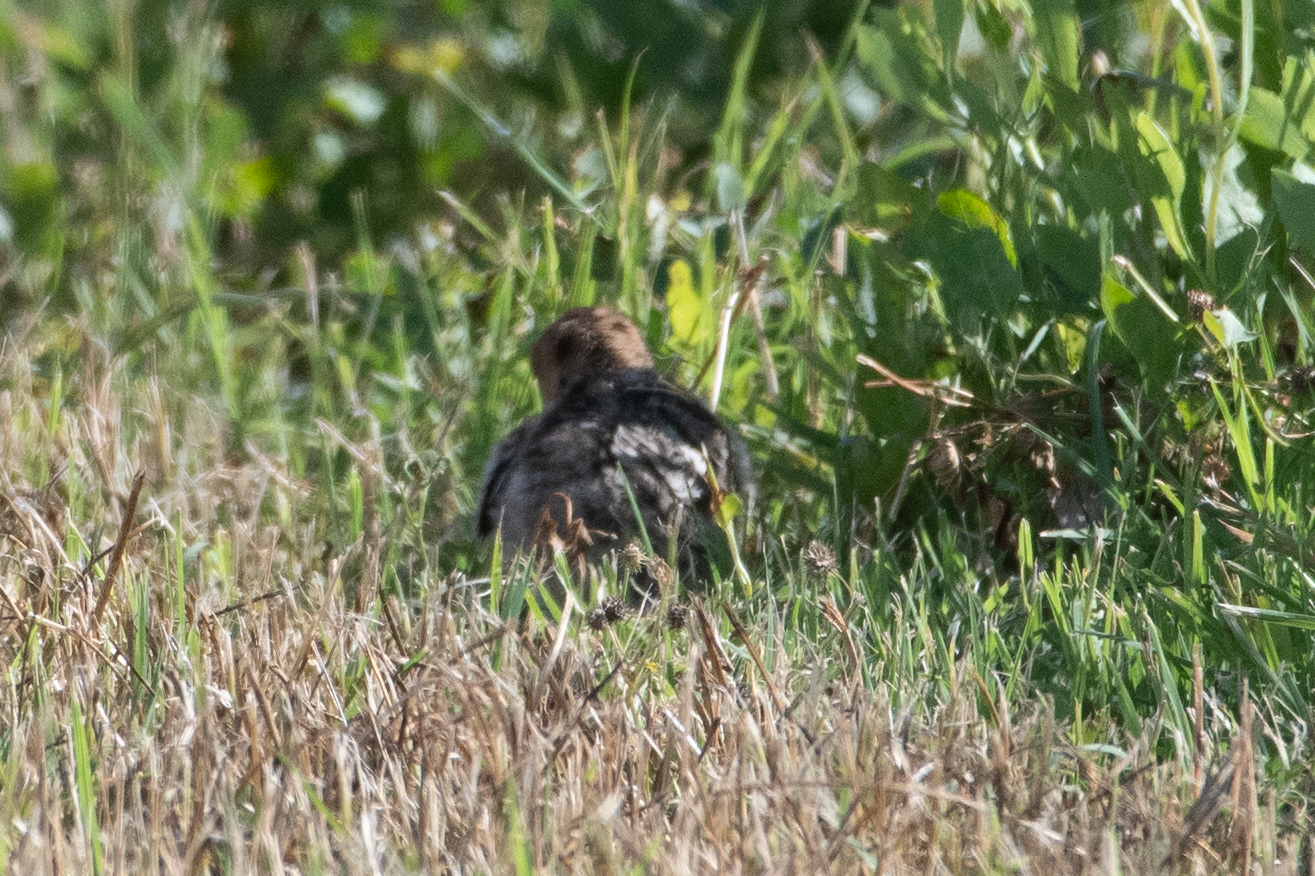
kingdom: Animalia
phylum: Chordata
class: Aves
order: Galliformes
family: Phasianidae
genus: Meleagris
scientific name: Meleagris gallopavo
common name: Wild turkey
